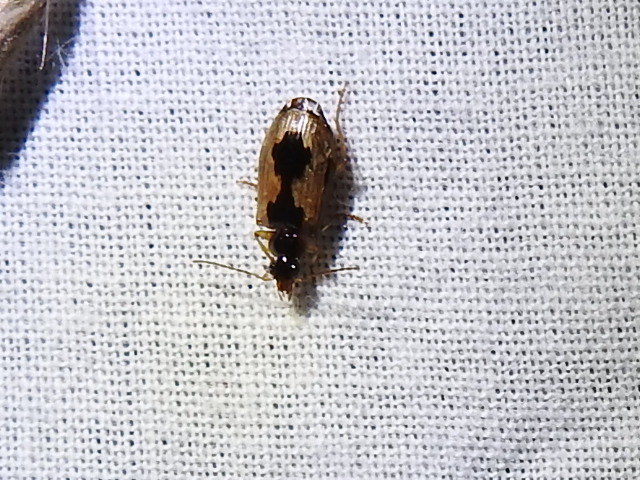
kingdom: Animalia
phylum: Arthropoda
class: Insecta
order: Coleoptera
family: Carabidae
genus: Lebia
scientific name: Lebia fuscata
